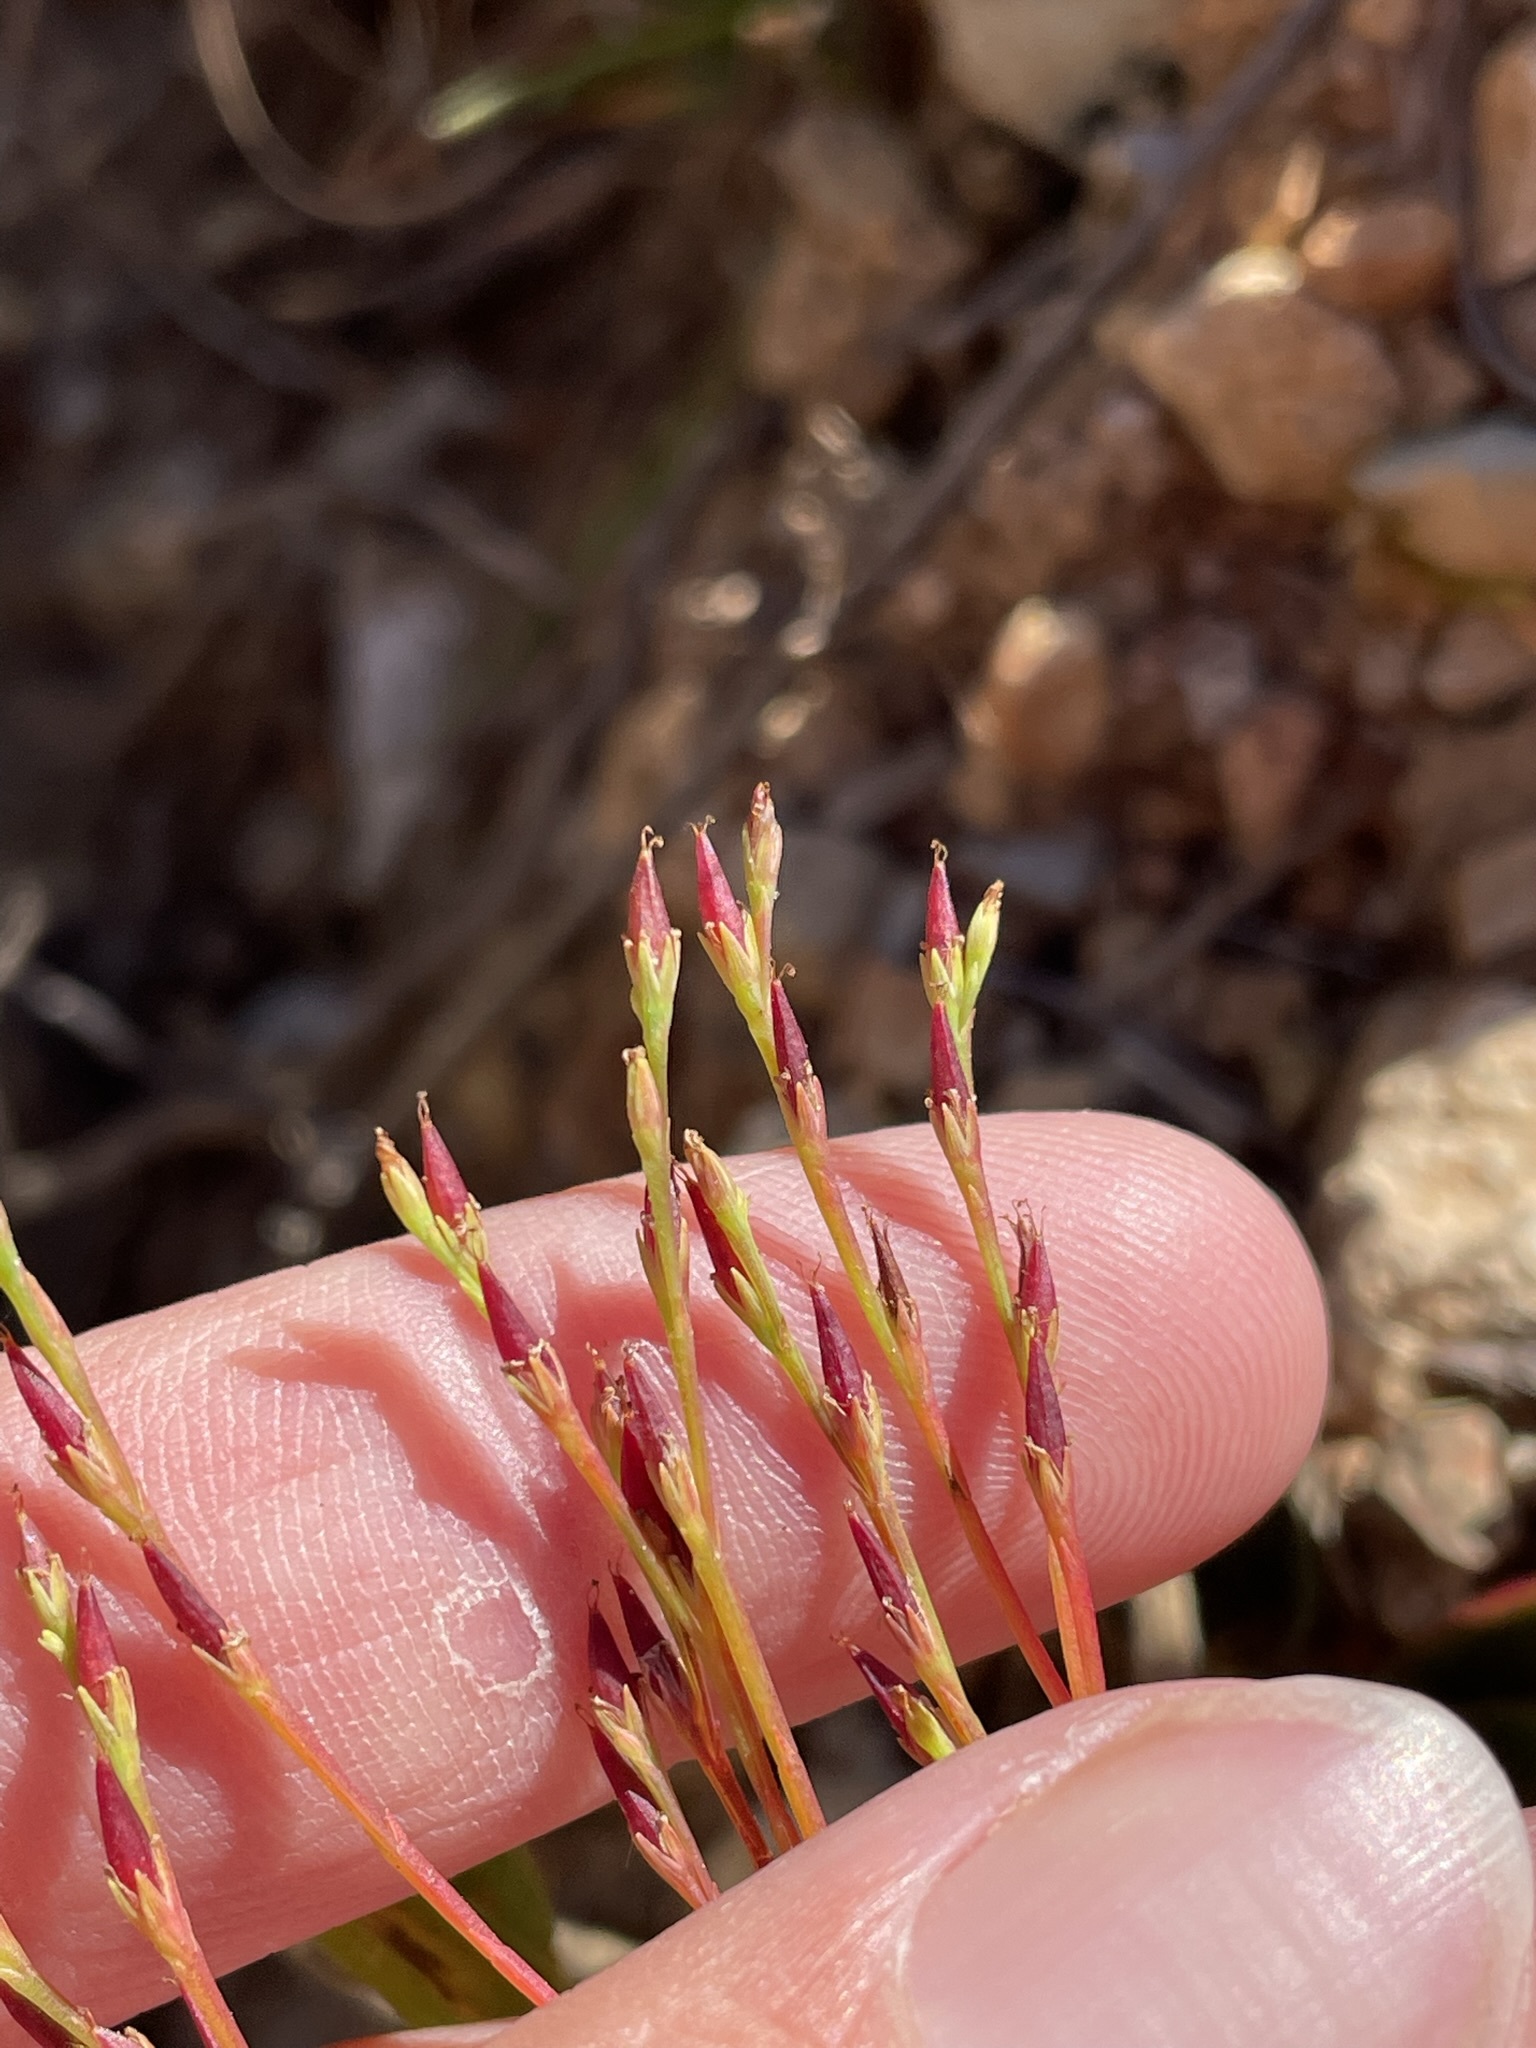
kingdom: Plantae
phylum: Tracheophyta
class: Magnoliopsida
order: Malpighiales
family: Hypericaceae
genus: Hypericum
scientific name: Hypericum gentianoides
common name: Gentian-leaved st. john's-wort
